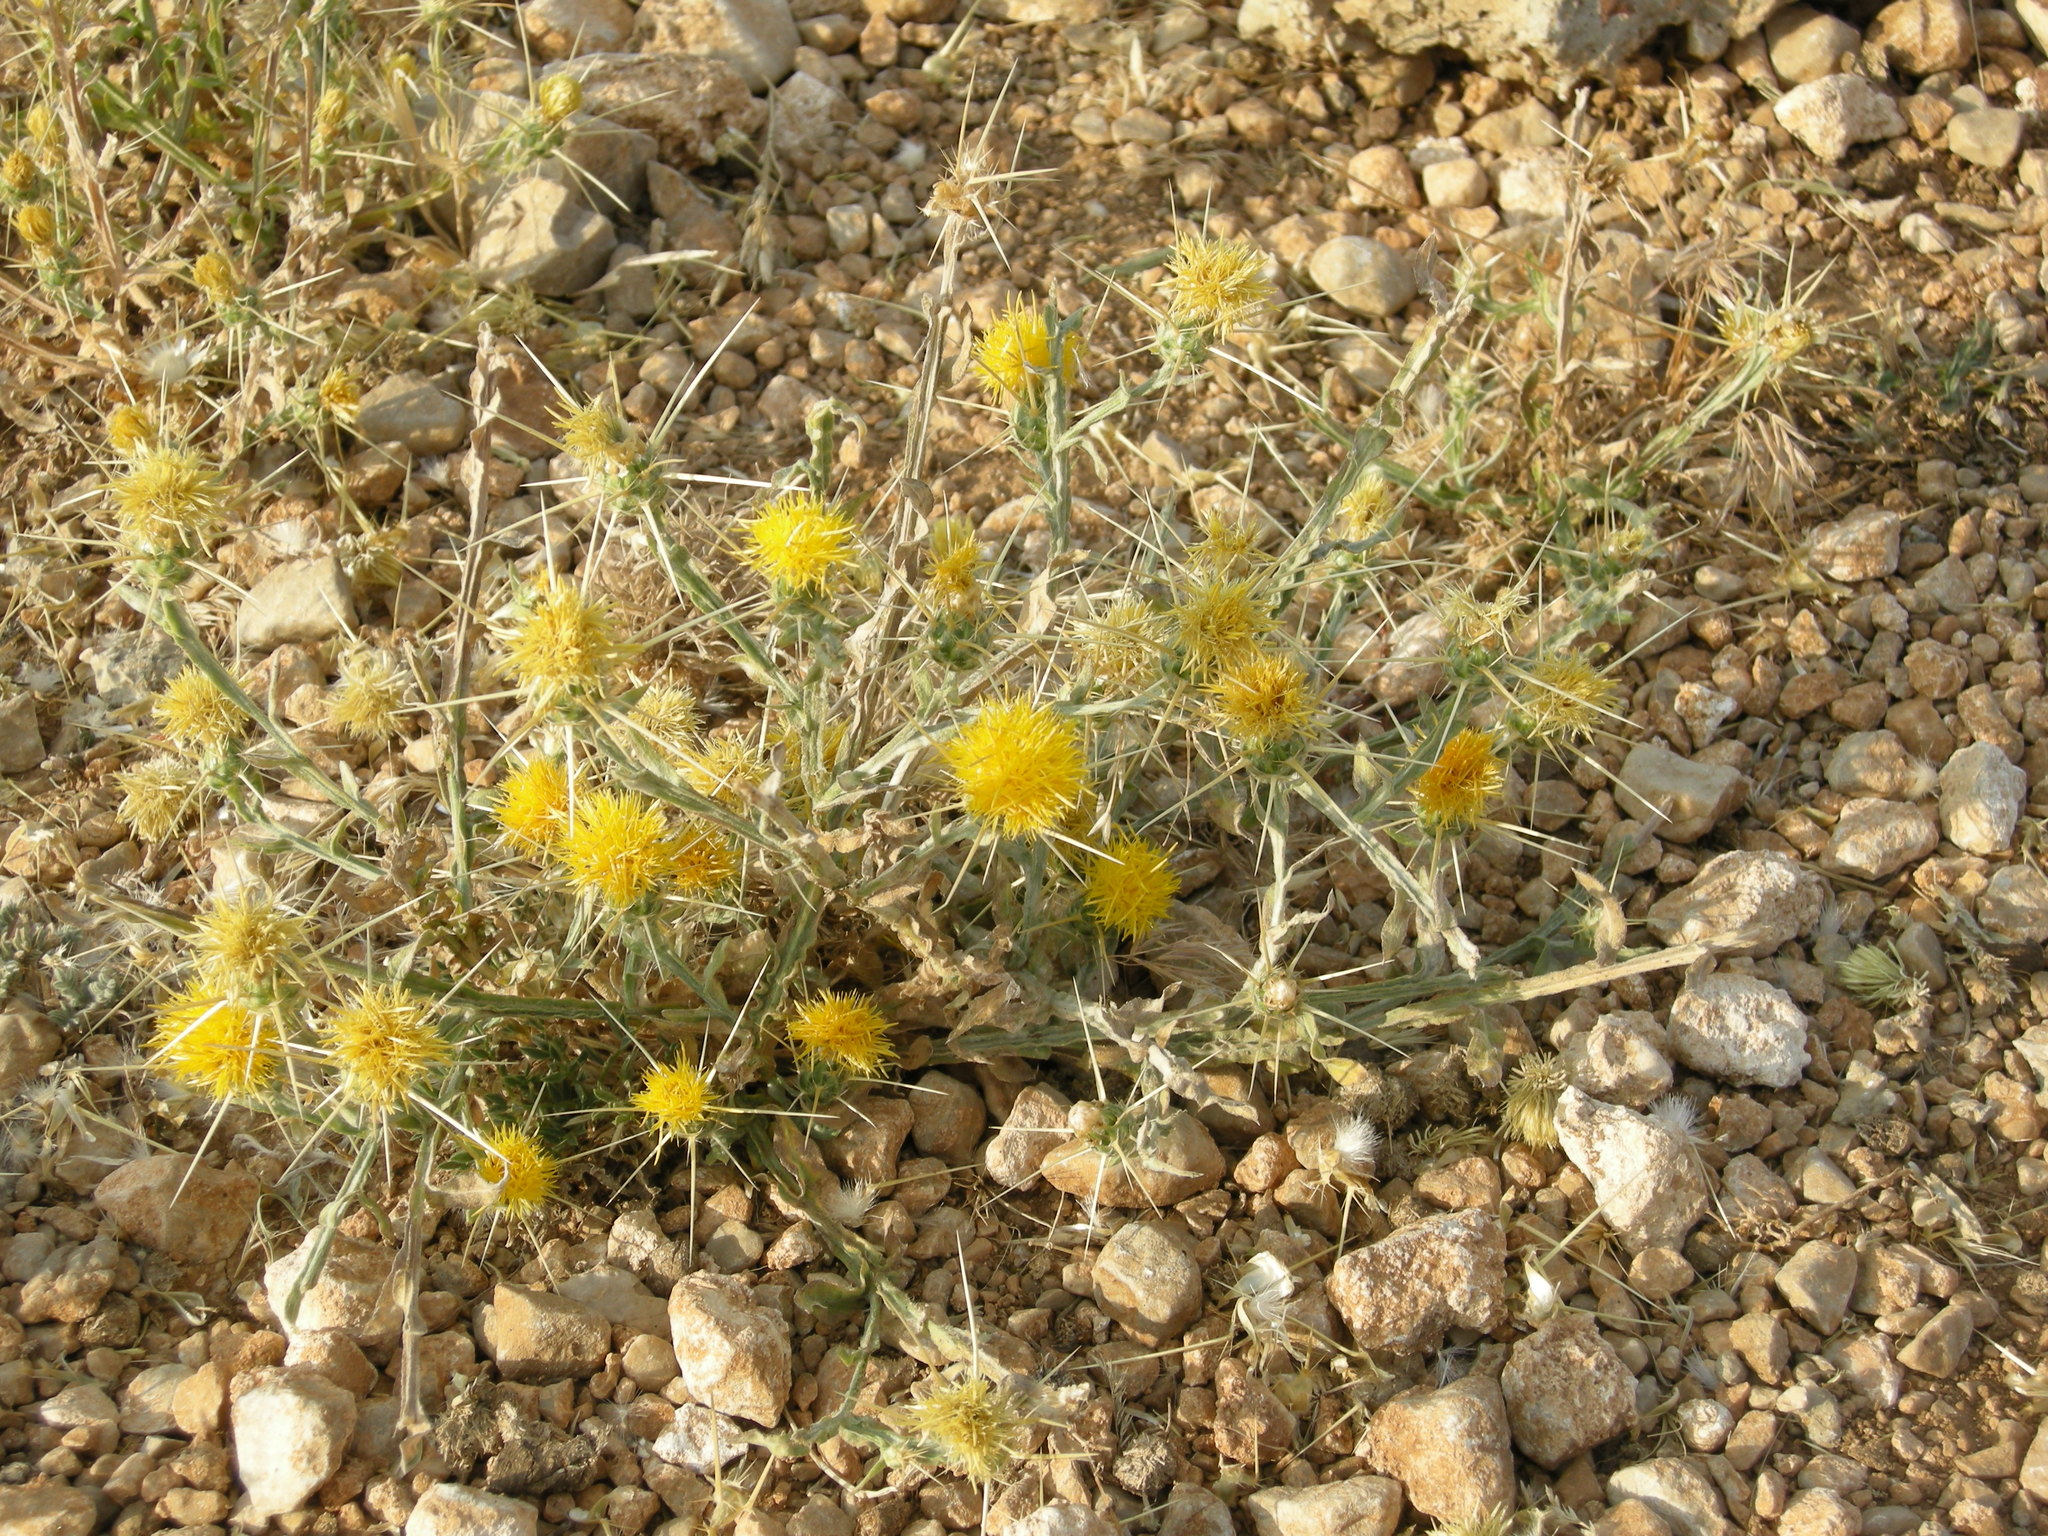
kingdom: Plantae
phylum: Tracheophyta
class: Magnoliopsida
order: Asterales
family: Asteraceae
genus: Centaurea
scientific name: Centaurea solstitialis
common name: Yellow star-thistle
